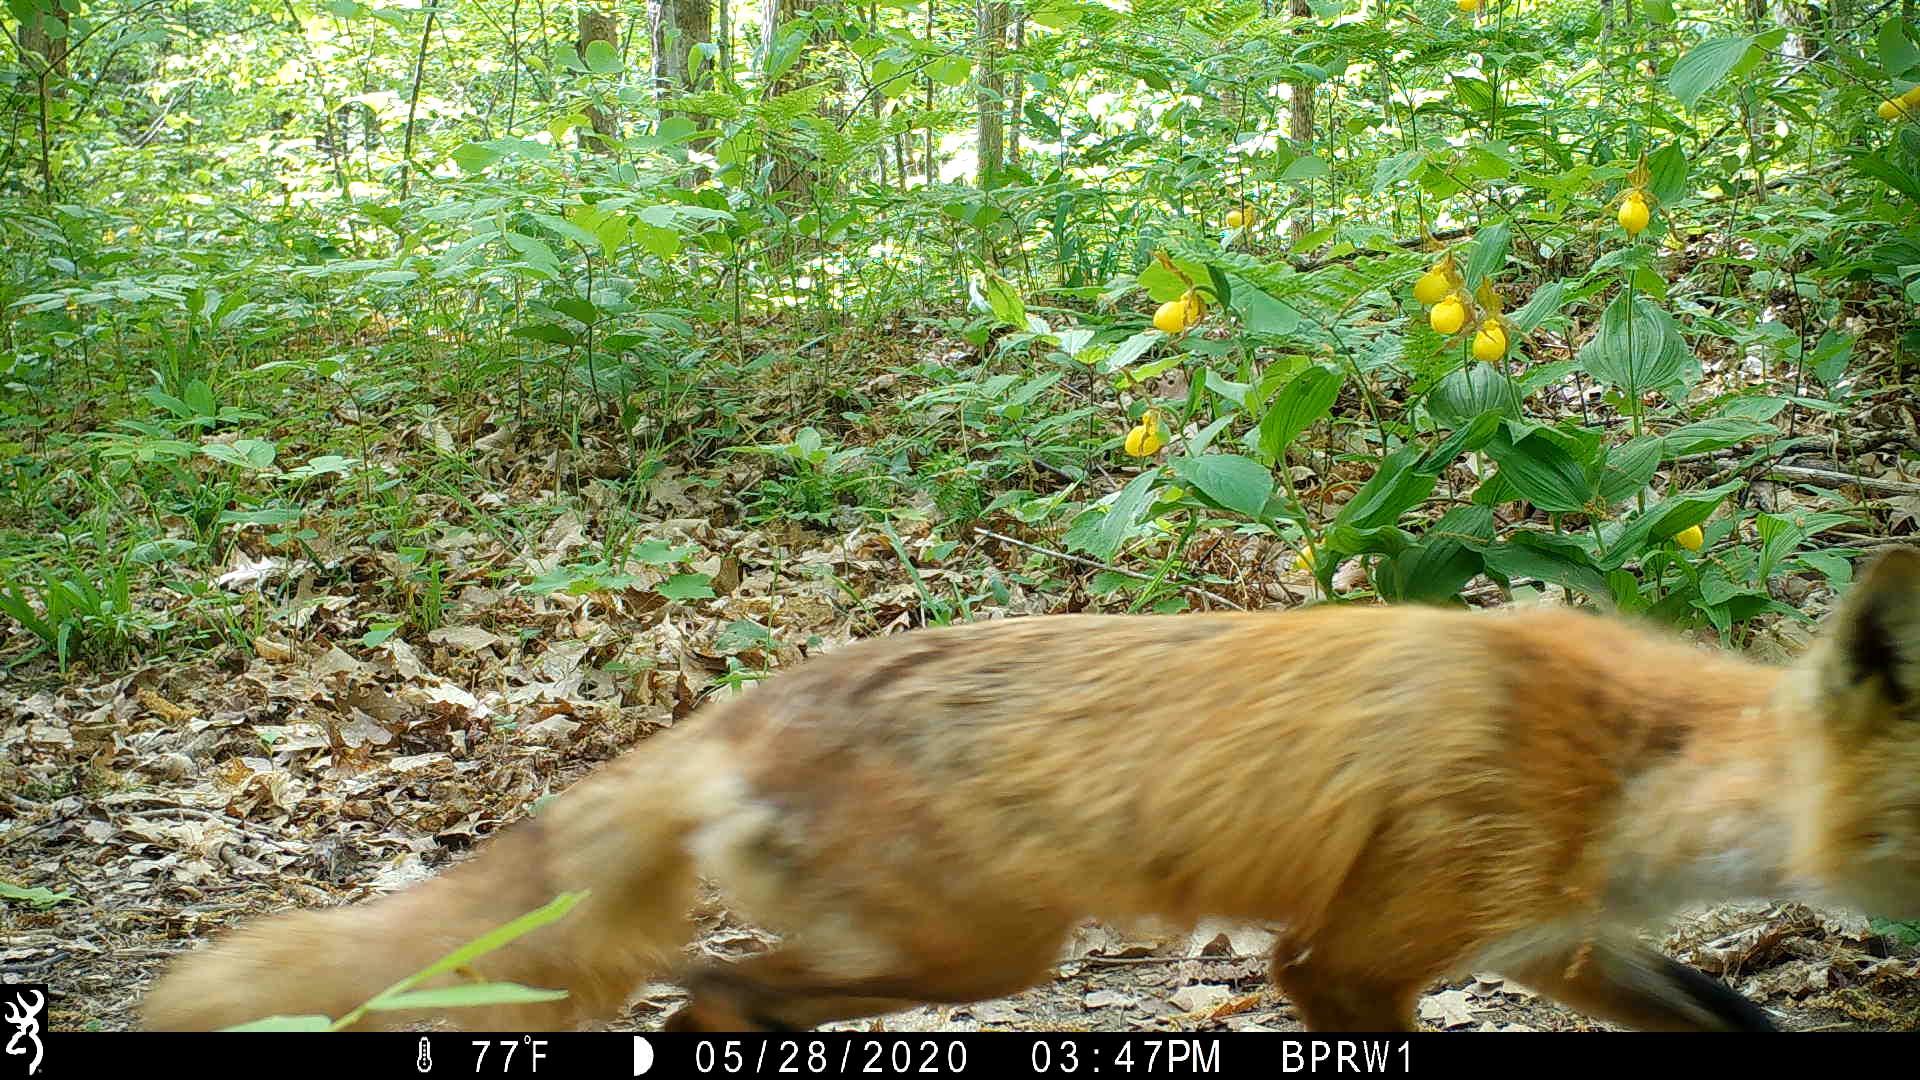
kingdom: Animalia
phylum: Chordata
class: Mammalia
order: Carnivora
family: Canidae
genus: Vulpes
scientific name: Vulpes vulpes
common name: Red fox
